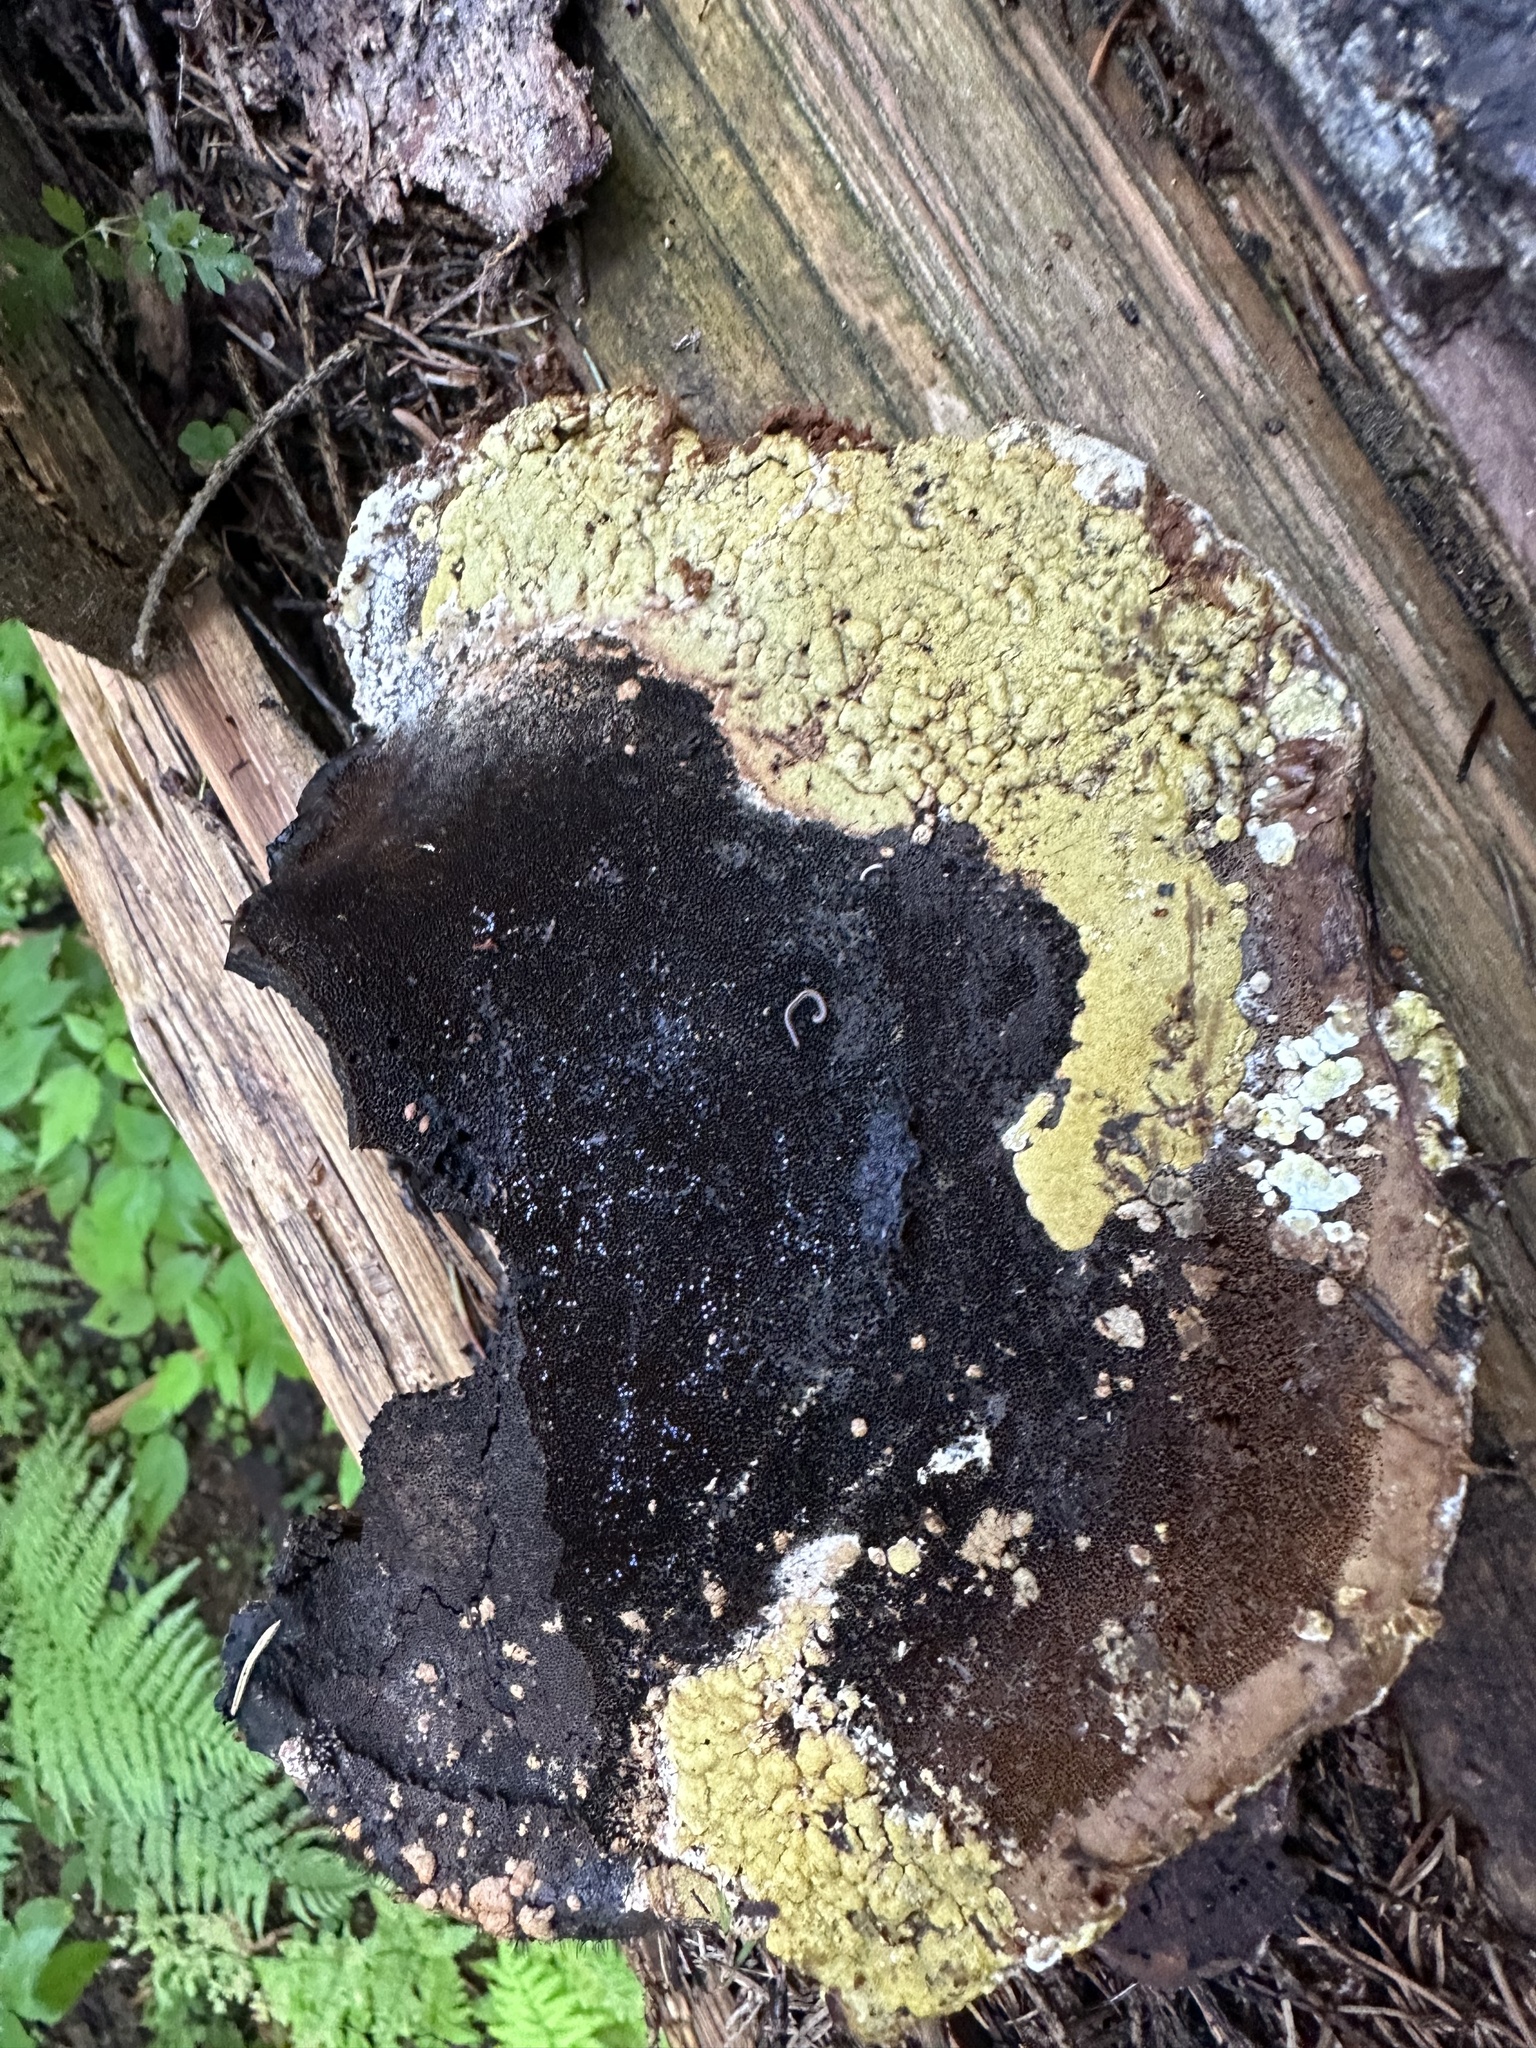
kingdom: Fungi
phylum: Ascomycota
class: Sordariomycetes
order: Hypocreales
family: Hypocreaceae
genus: Trichoderma
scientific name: Trichoderma pulvinatum
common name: Ochre cushion
